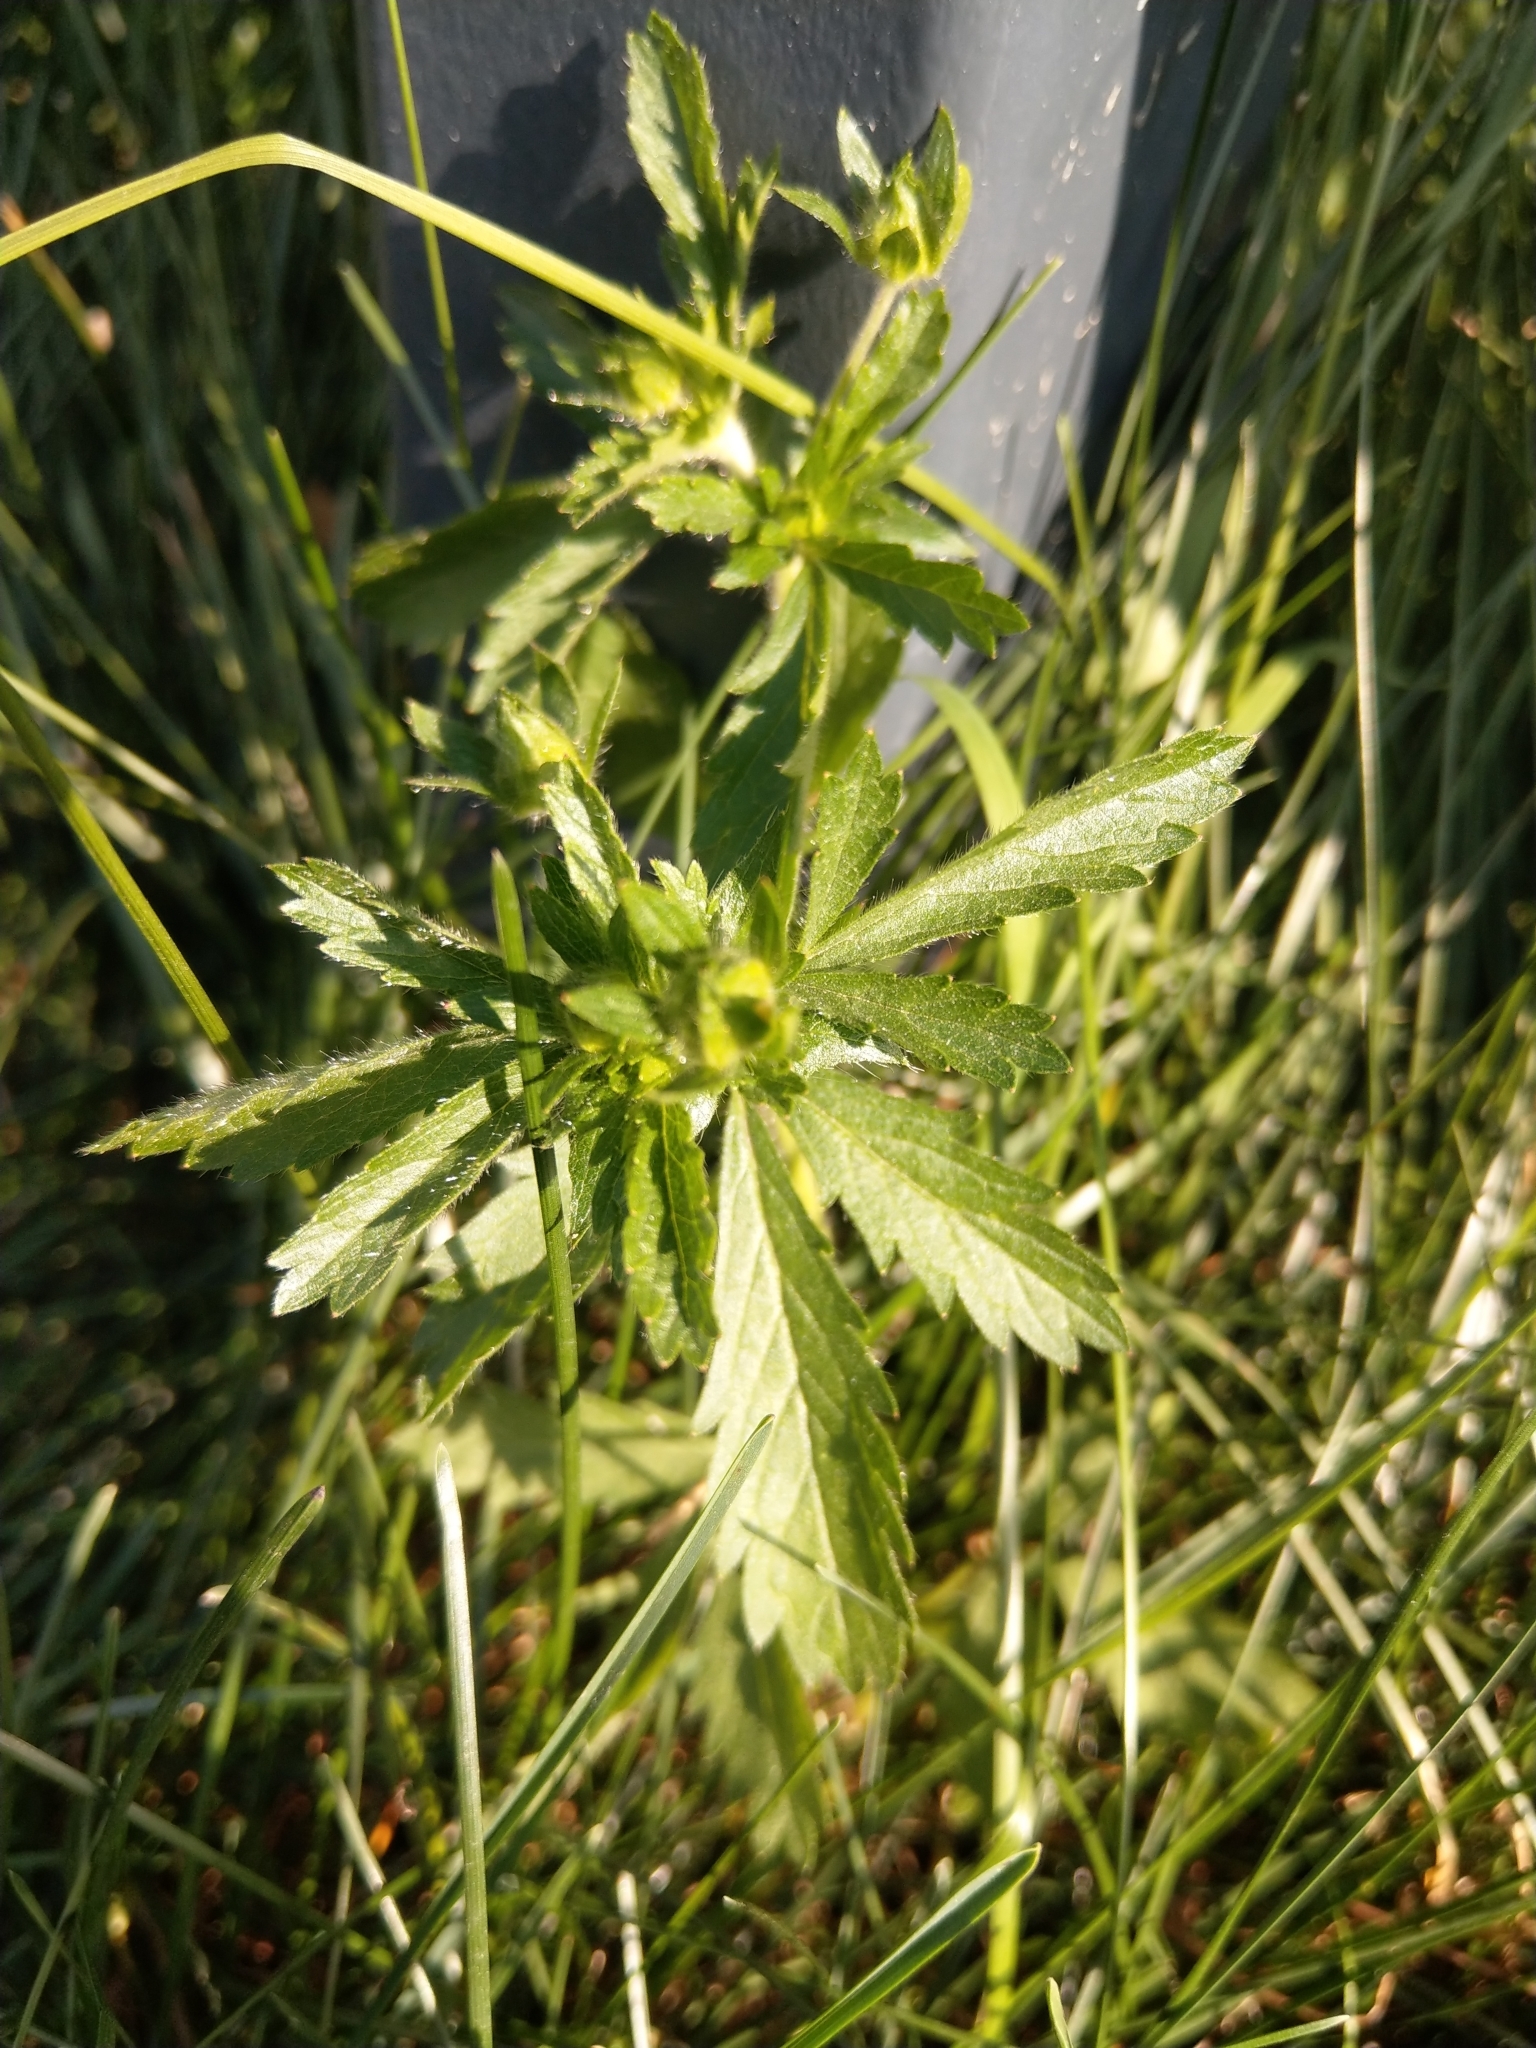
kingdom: Plantae
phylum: Tracheophyta
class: Magnoliopsida
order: Rosales
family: Rosaceae
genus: Potentilla
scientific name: Potentilla norvegica
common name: Ternate-leaved cinquefoil
